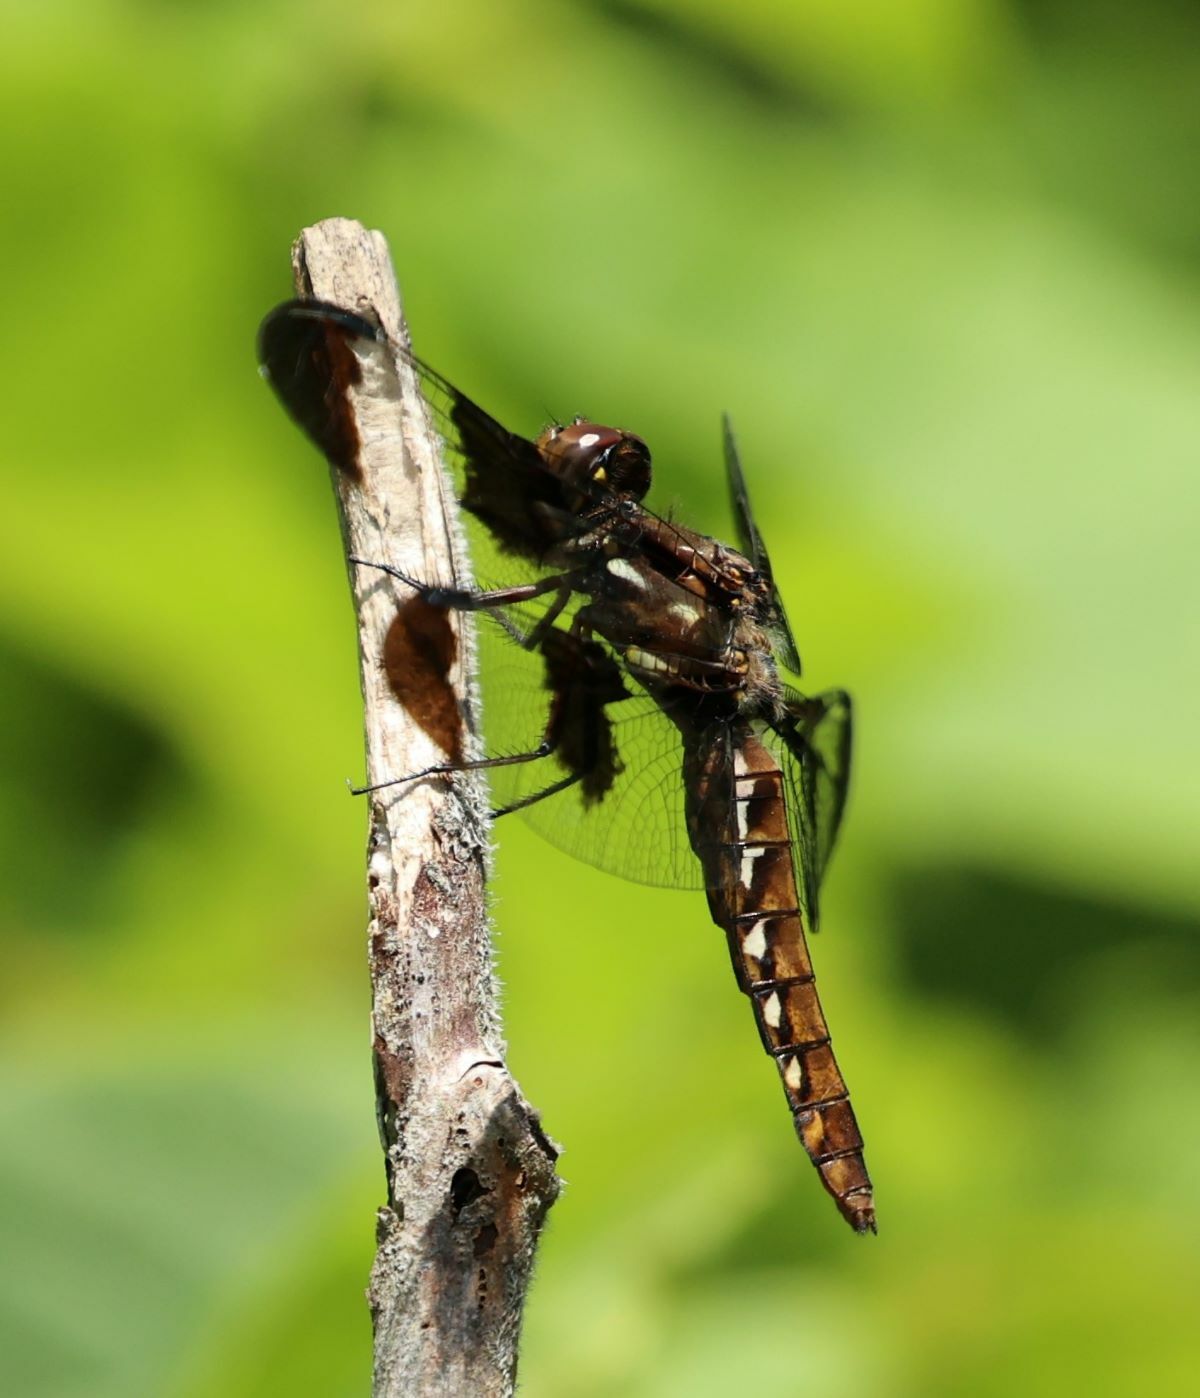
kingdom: Animalia
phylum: Arthropoda
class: Insecta
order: Odonata
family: Libellulidae
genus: Plathemis
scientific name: Plathemis lydia
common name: Common whitetail
